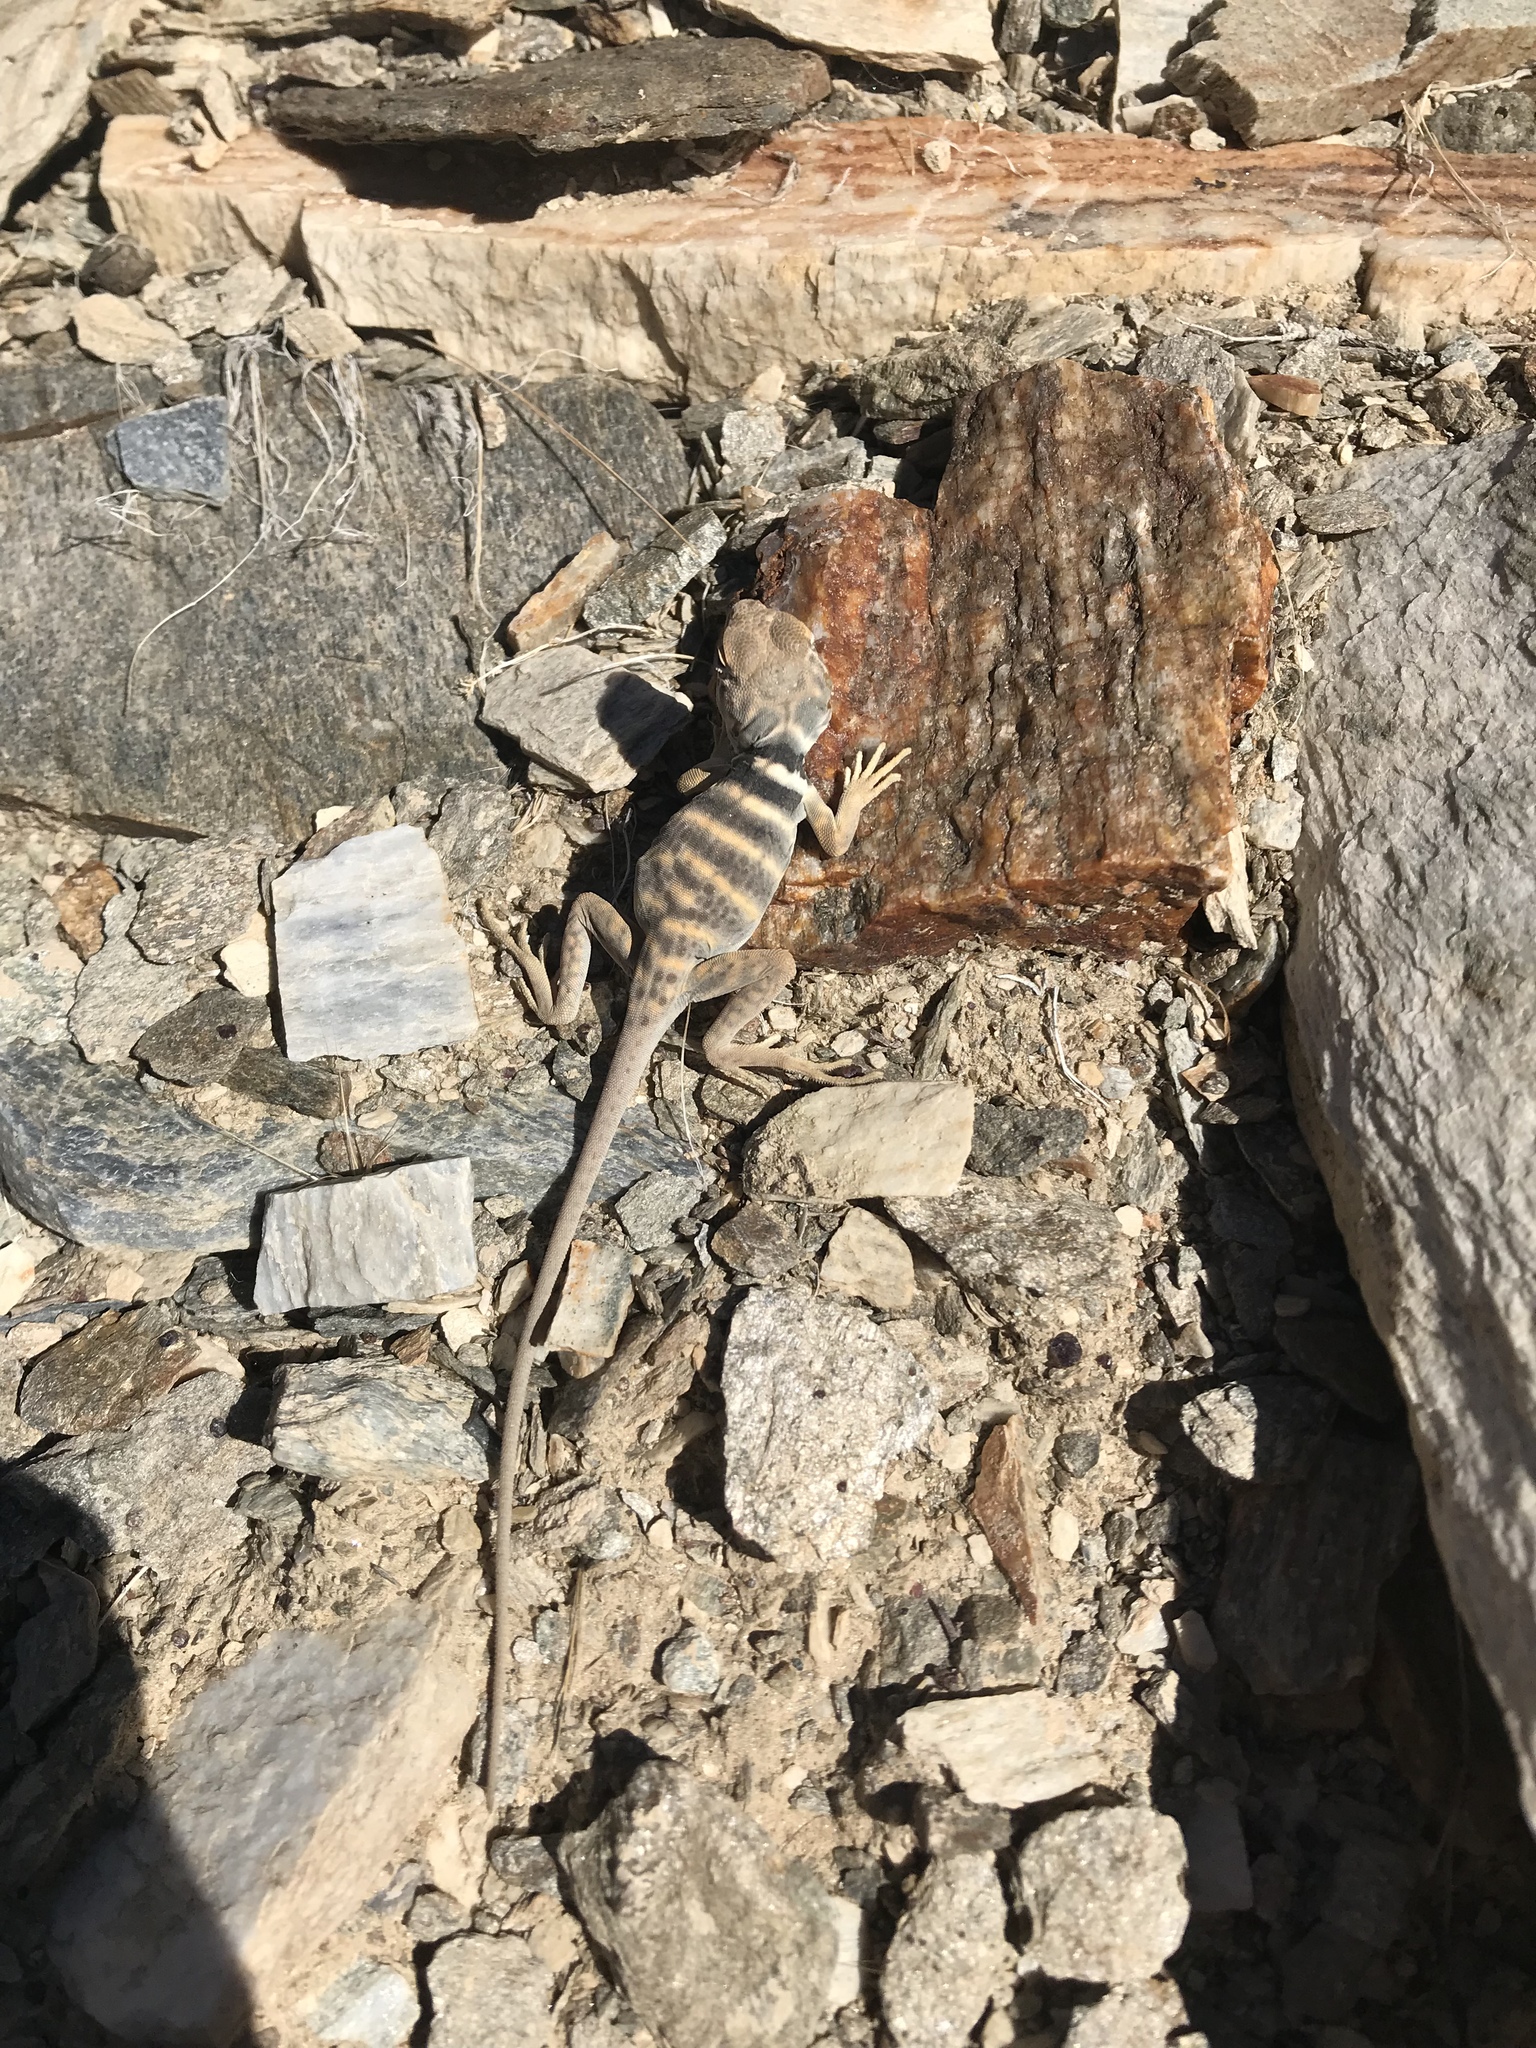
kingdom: Animalia
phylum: Chordata
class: Squamata
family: Crotaphytidae
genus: Crotaphytus
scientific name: Crotaphytus bicinctores
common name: Mojave black-collared lizard
